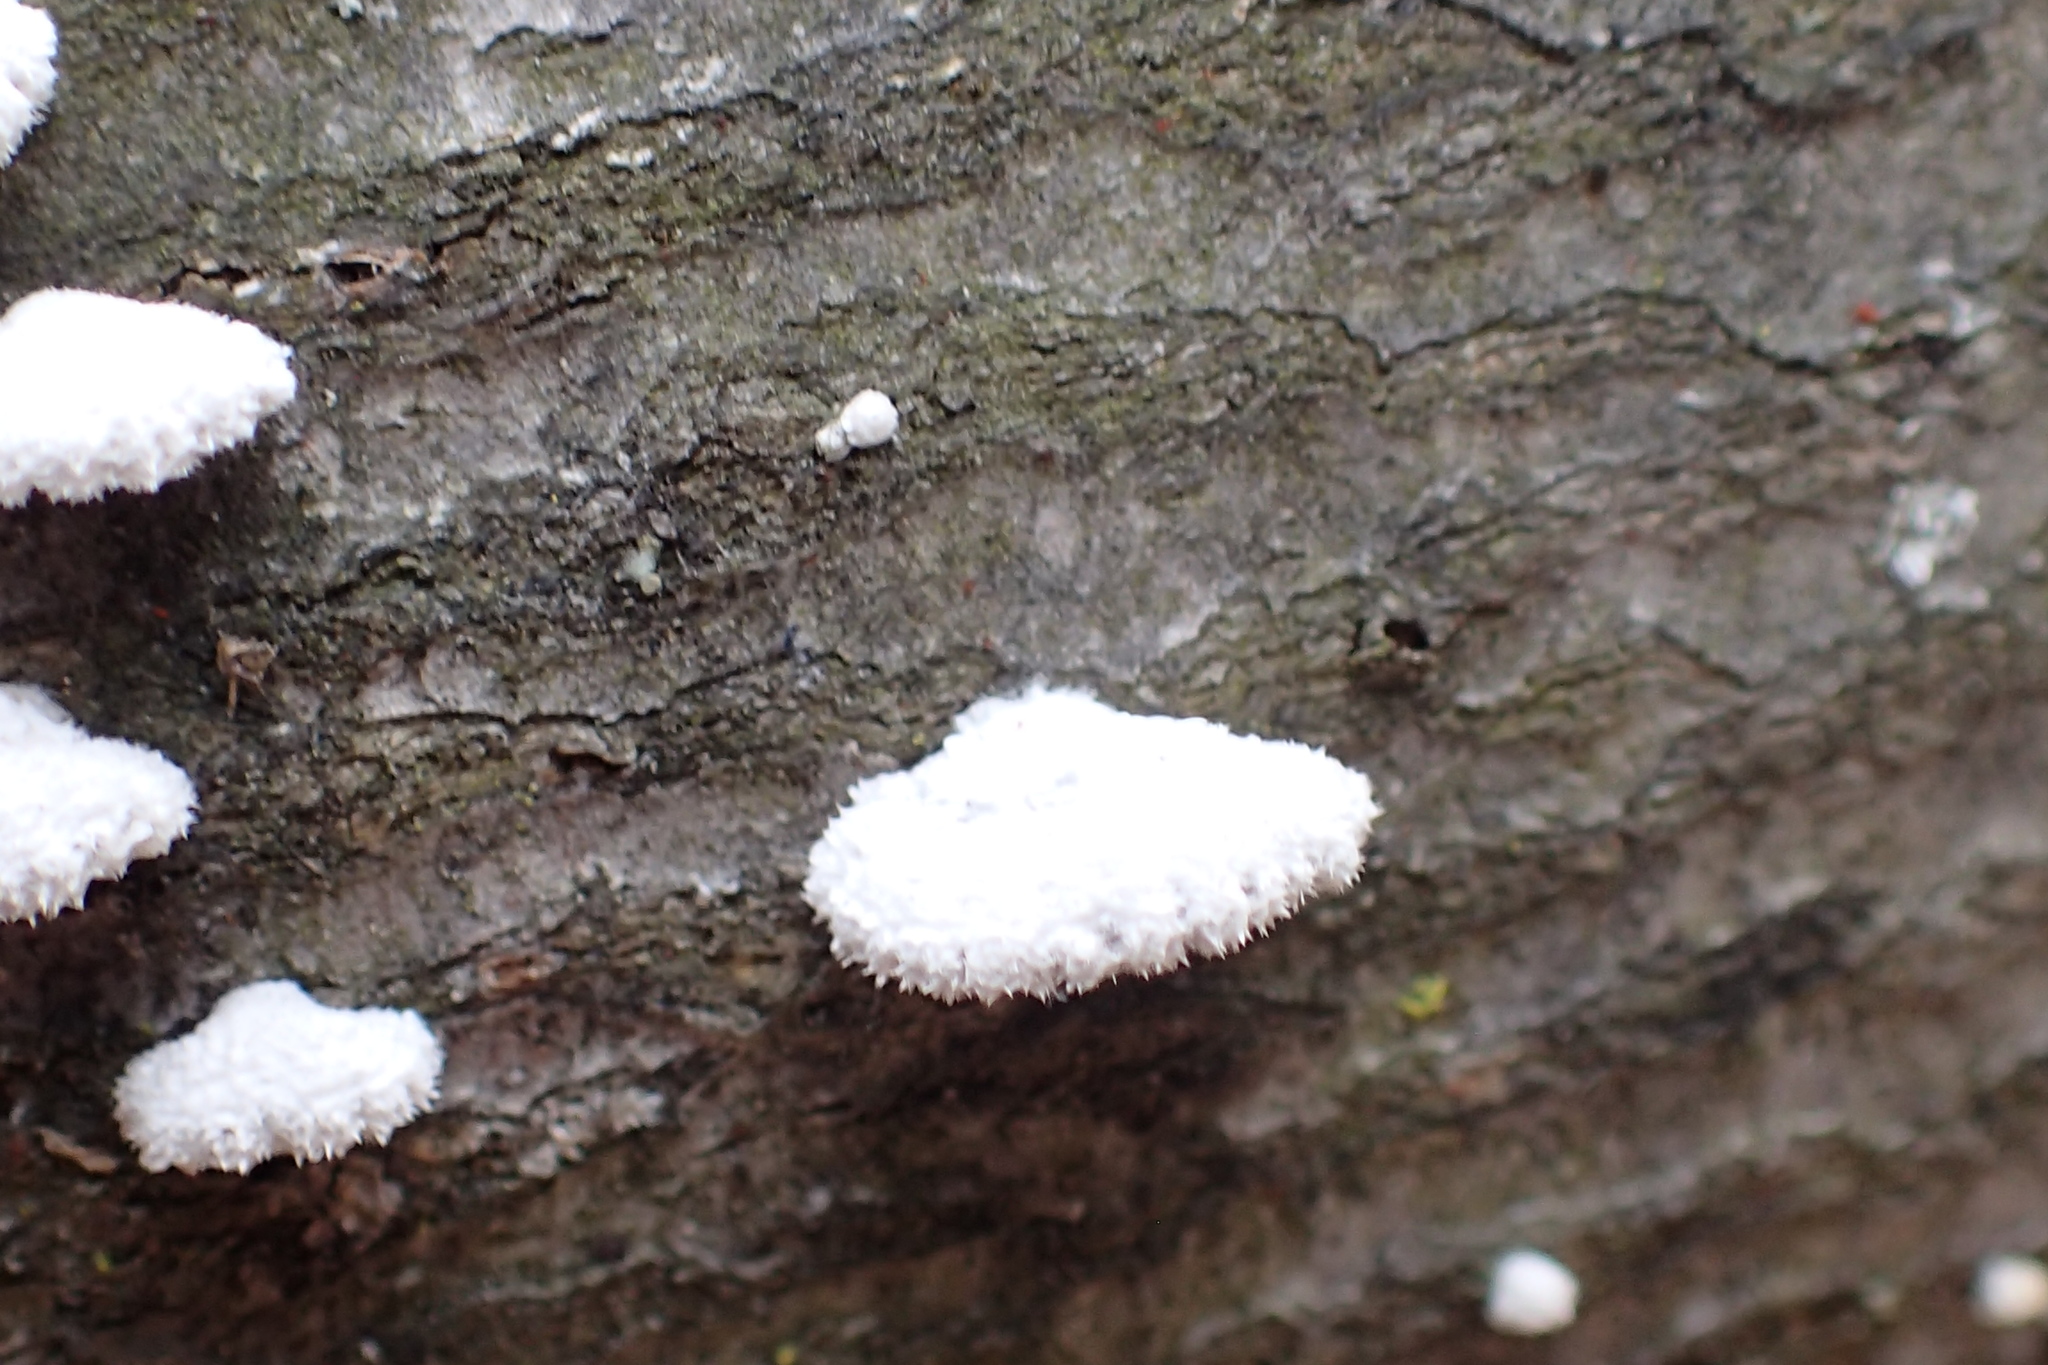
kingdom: Fungi
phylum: Basidiomycota
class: Agaricomycetes
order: Agaricales
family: Schizophyllaceae
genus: Schizophyllum
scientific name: Schizophyllum commune
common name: Common porecrust
